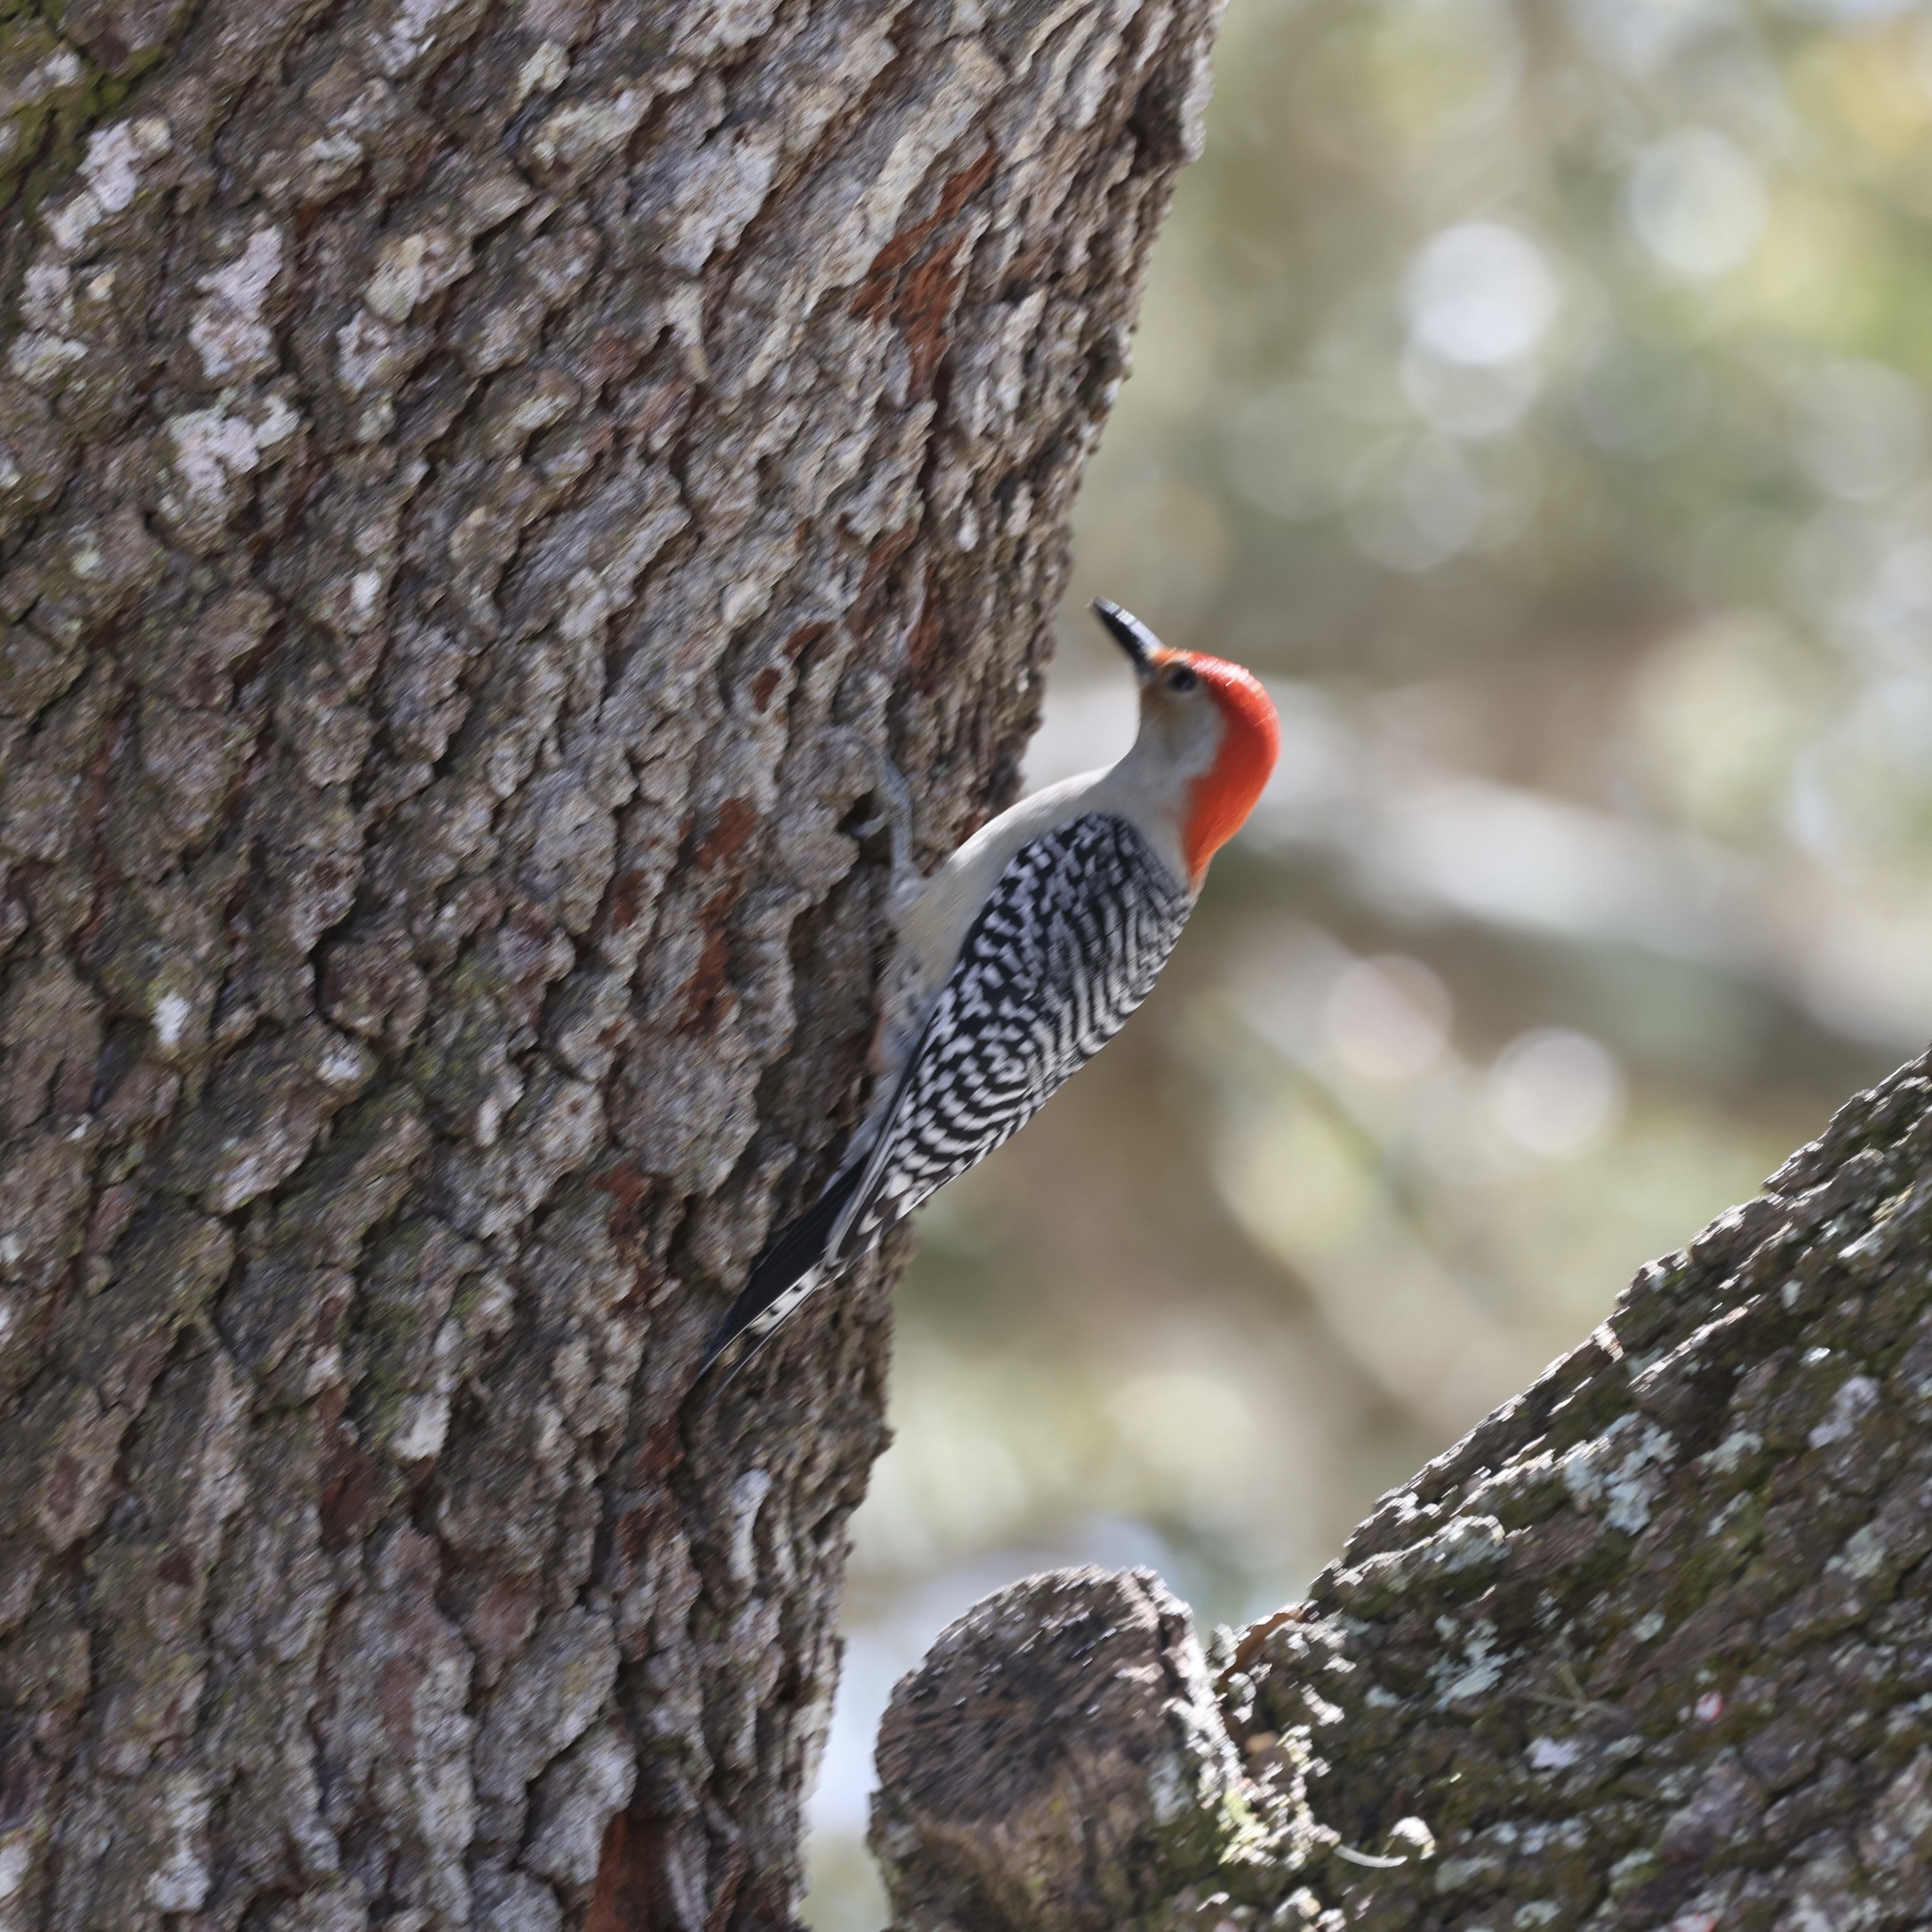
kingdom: Animalia
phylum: Chordata
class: Aves
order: Piciformes
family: Picidae
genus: Melanerpes
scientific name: Melanerpes carolinus
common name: Red-bellied woodpecker
